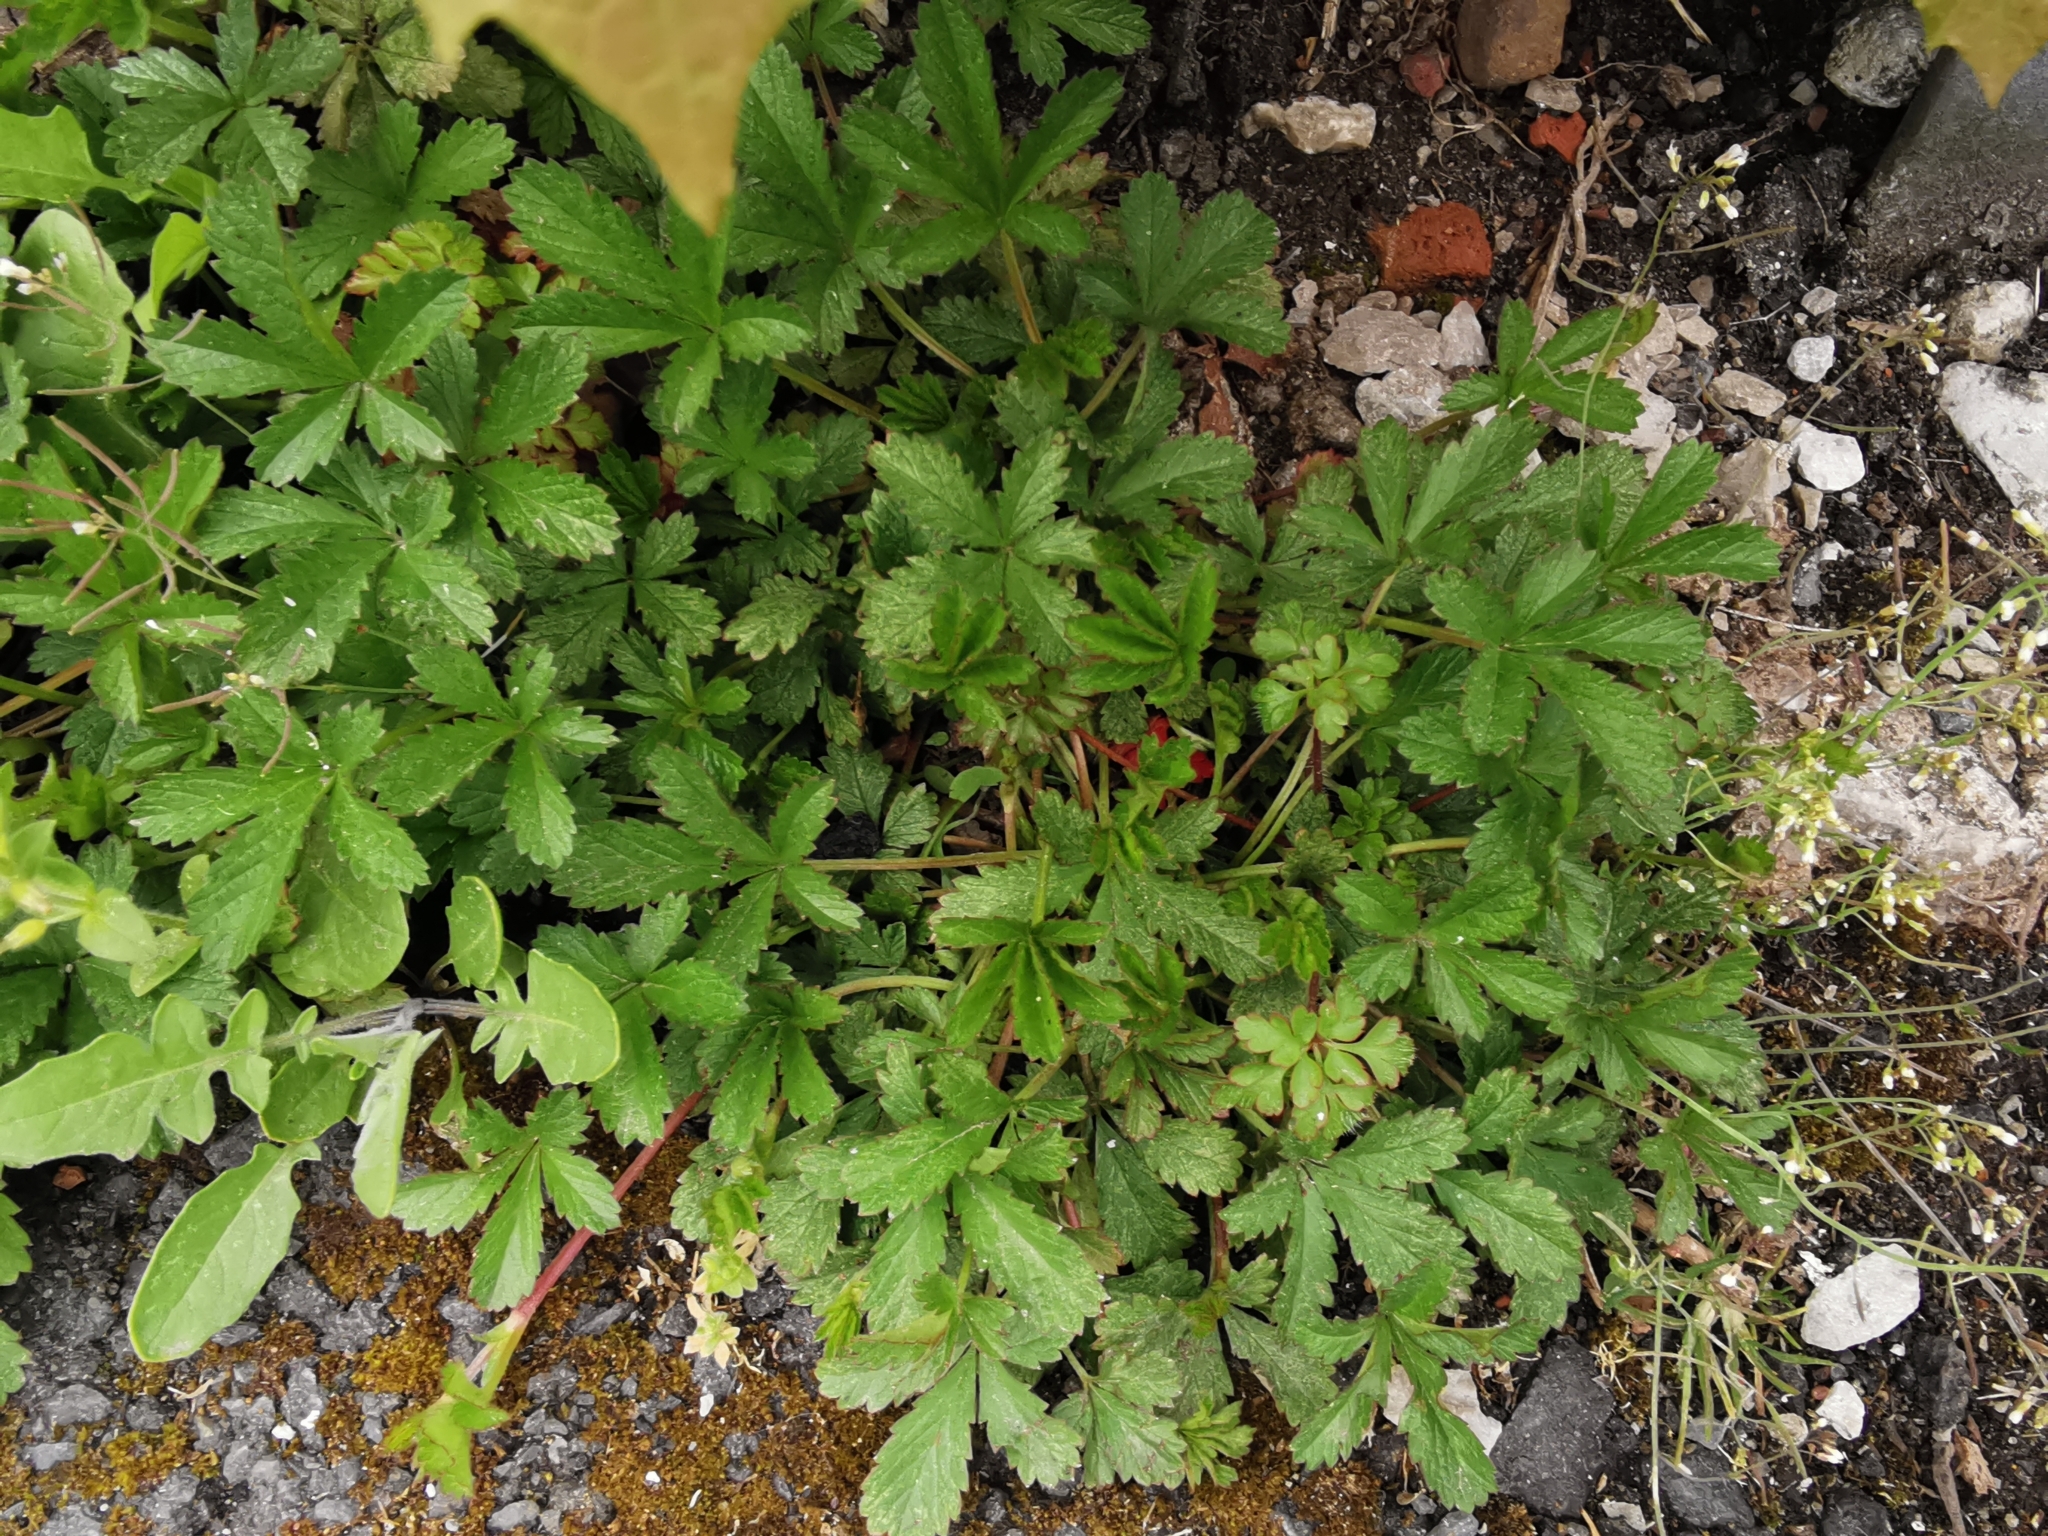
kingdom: Plantae
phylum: Tracheophyta
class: Magnoliopsida
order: Rosales
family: Rosaceae
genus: Potentilla
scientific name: Potentilla reptans
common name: Creeping cinquefoil
